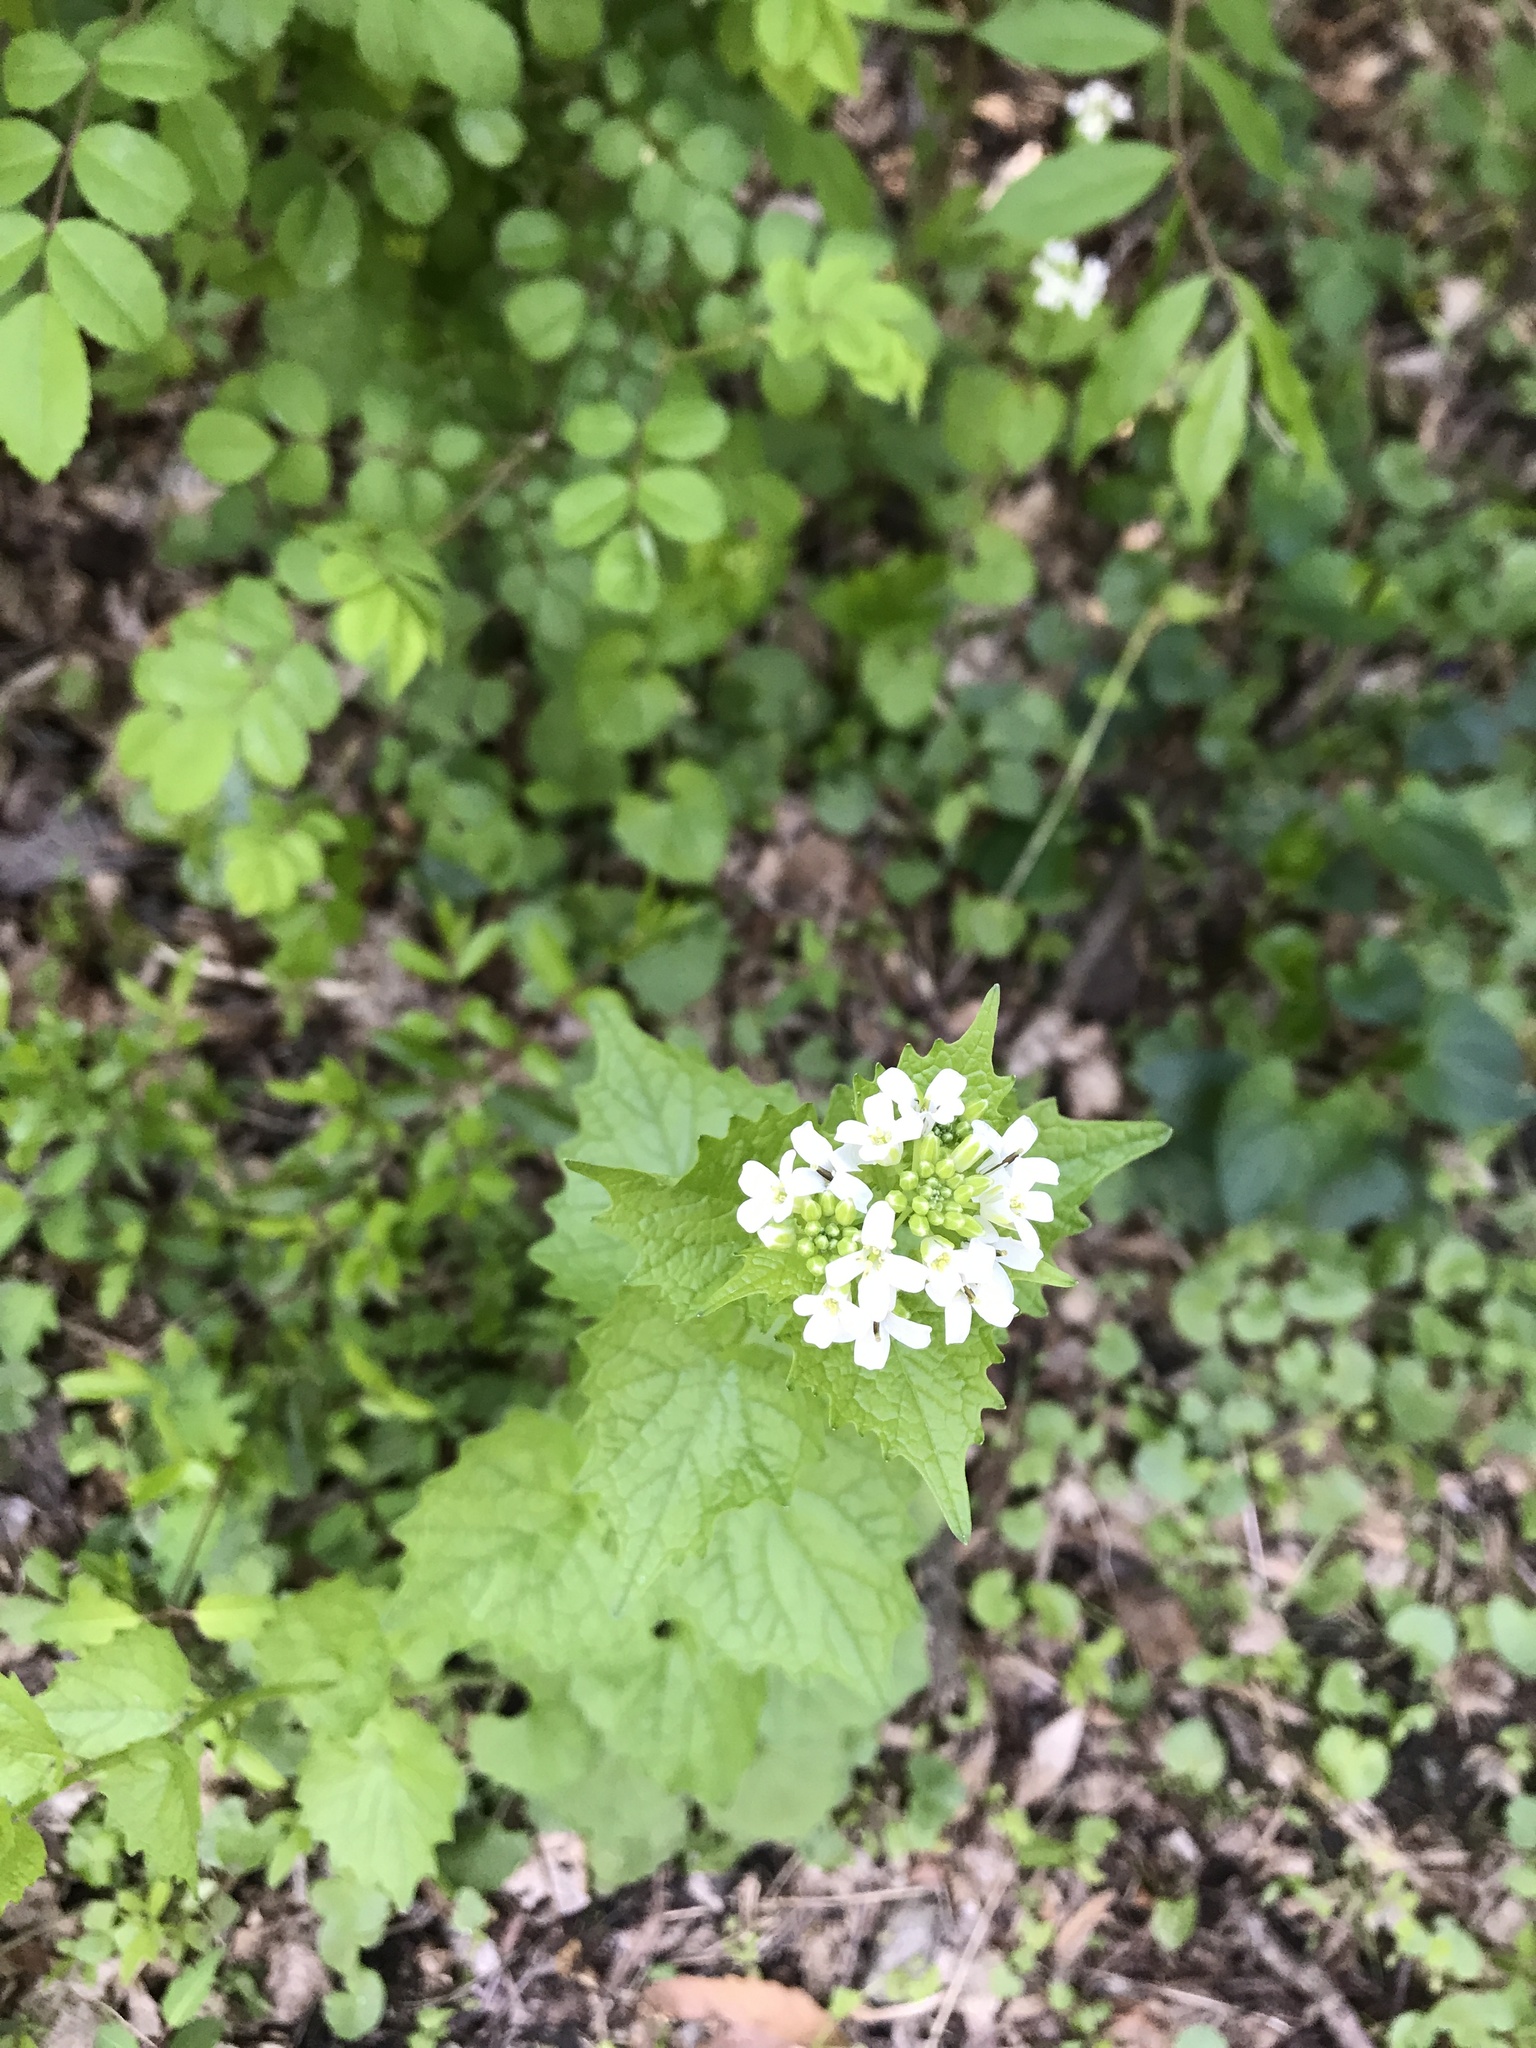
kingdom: Plantae
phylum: Tracheophyta
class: Magnoliopsida
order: Brassicales
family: Brassicaceae
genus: Alliaria
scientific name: Alliaria petiolata
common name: Garlic mustard
